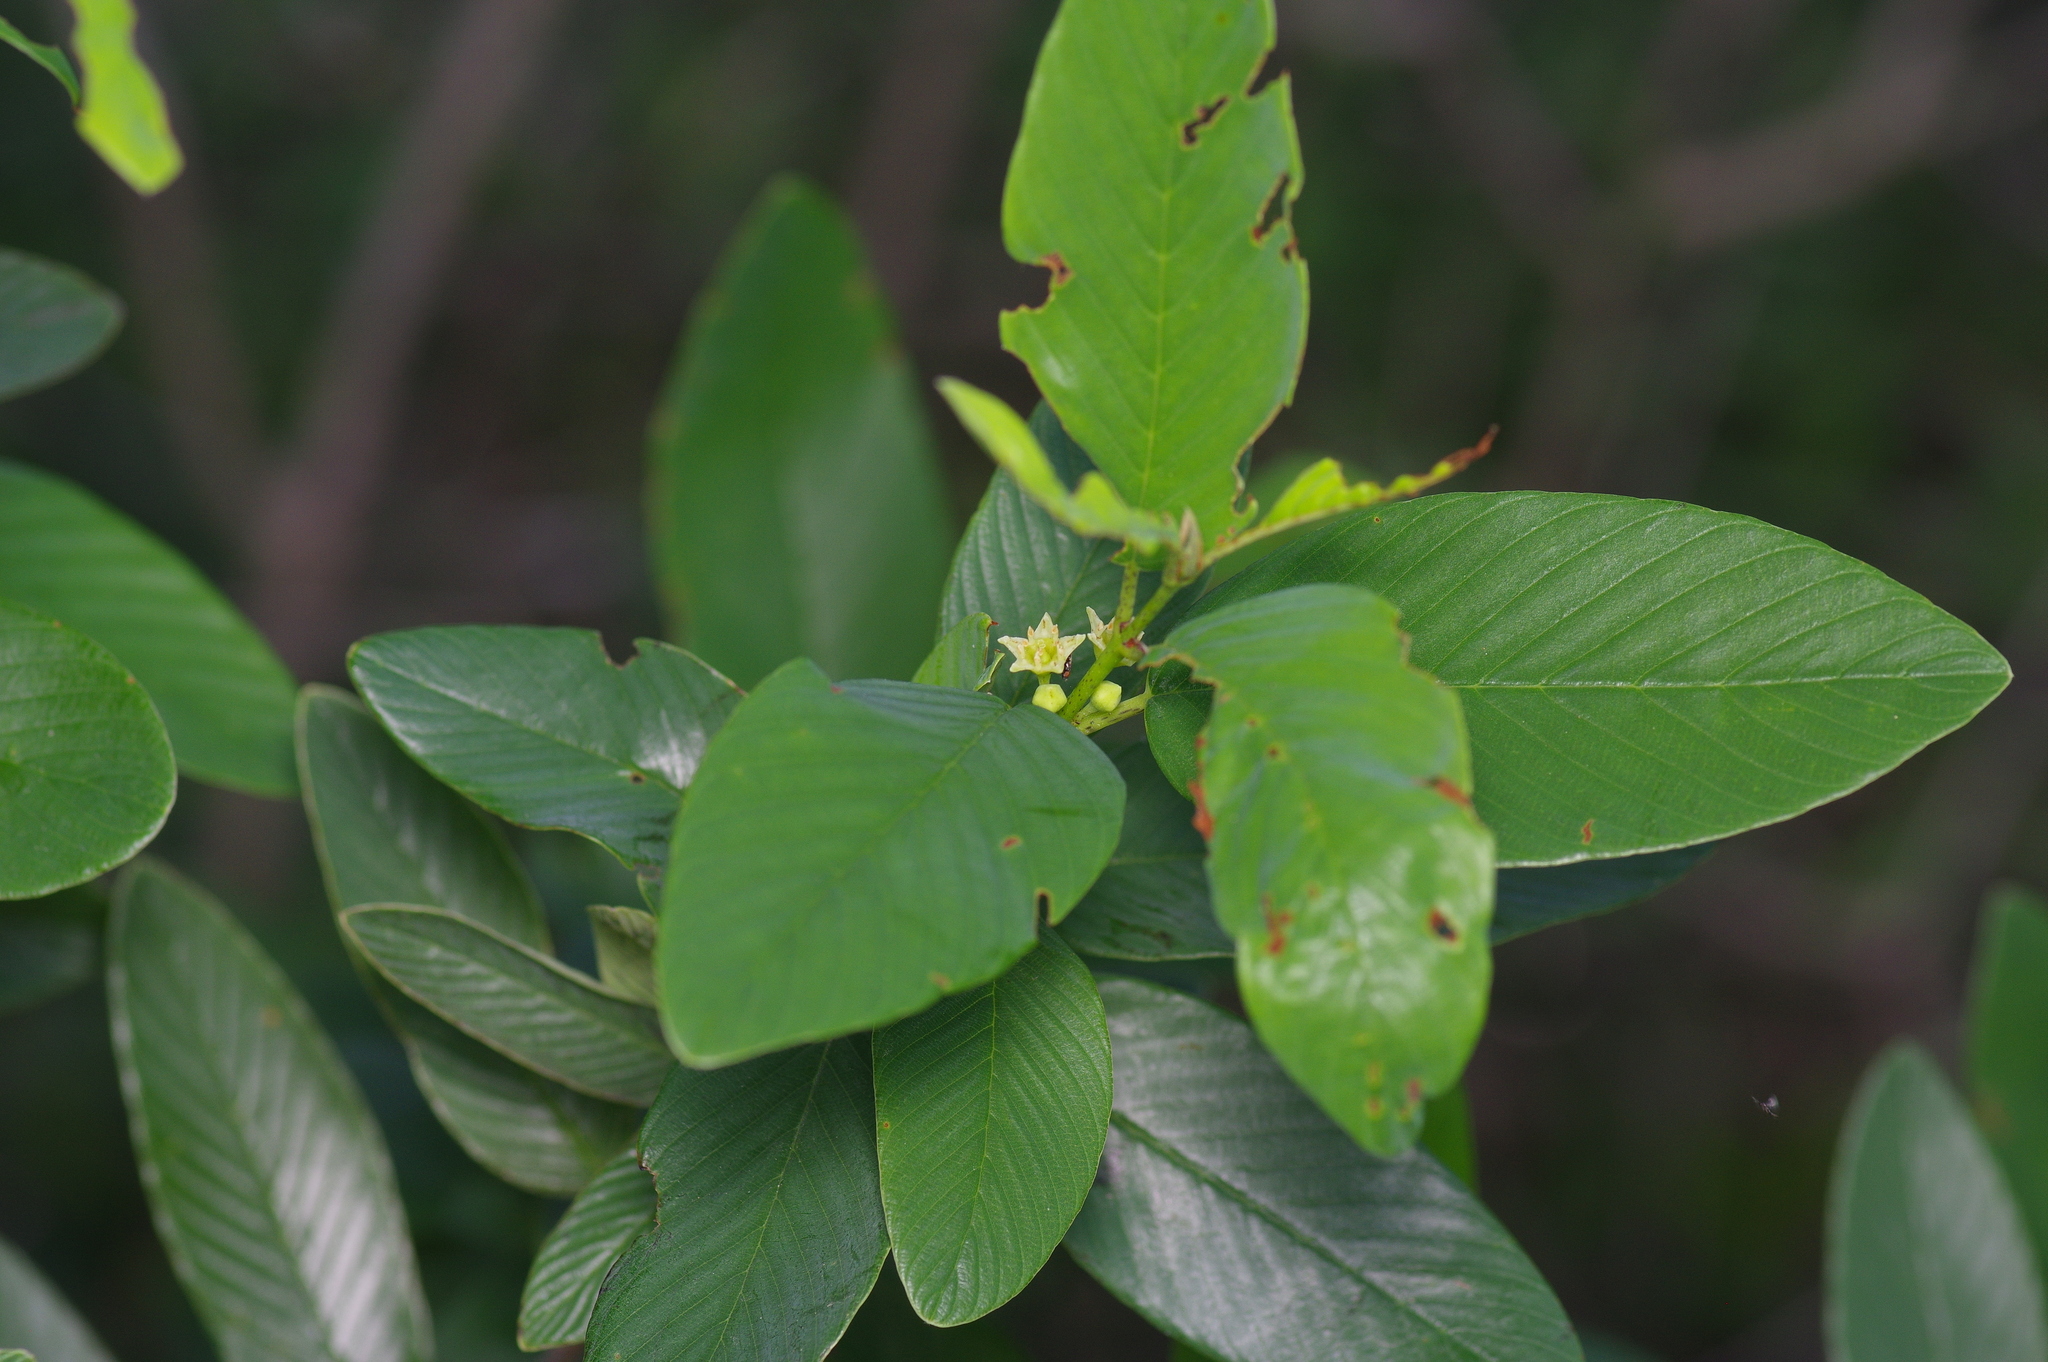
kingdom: Plantae
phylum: Tracheophyta
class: Magnoliopsida
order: Rosales
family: Rhamnaceae
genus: Karwinskia
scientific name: Karwinskia humboldtiana
